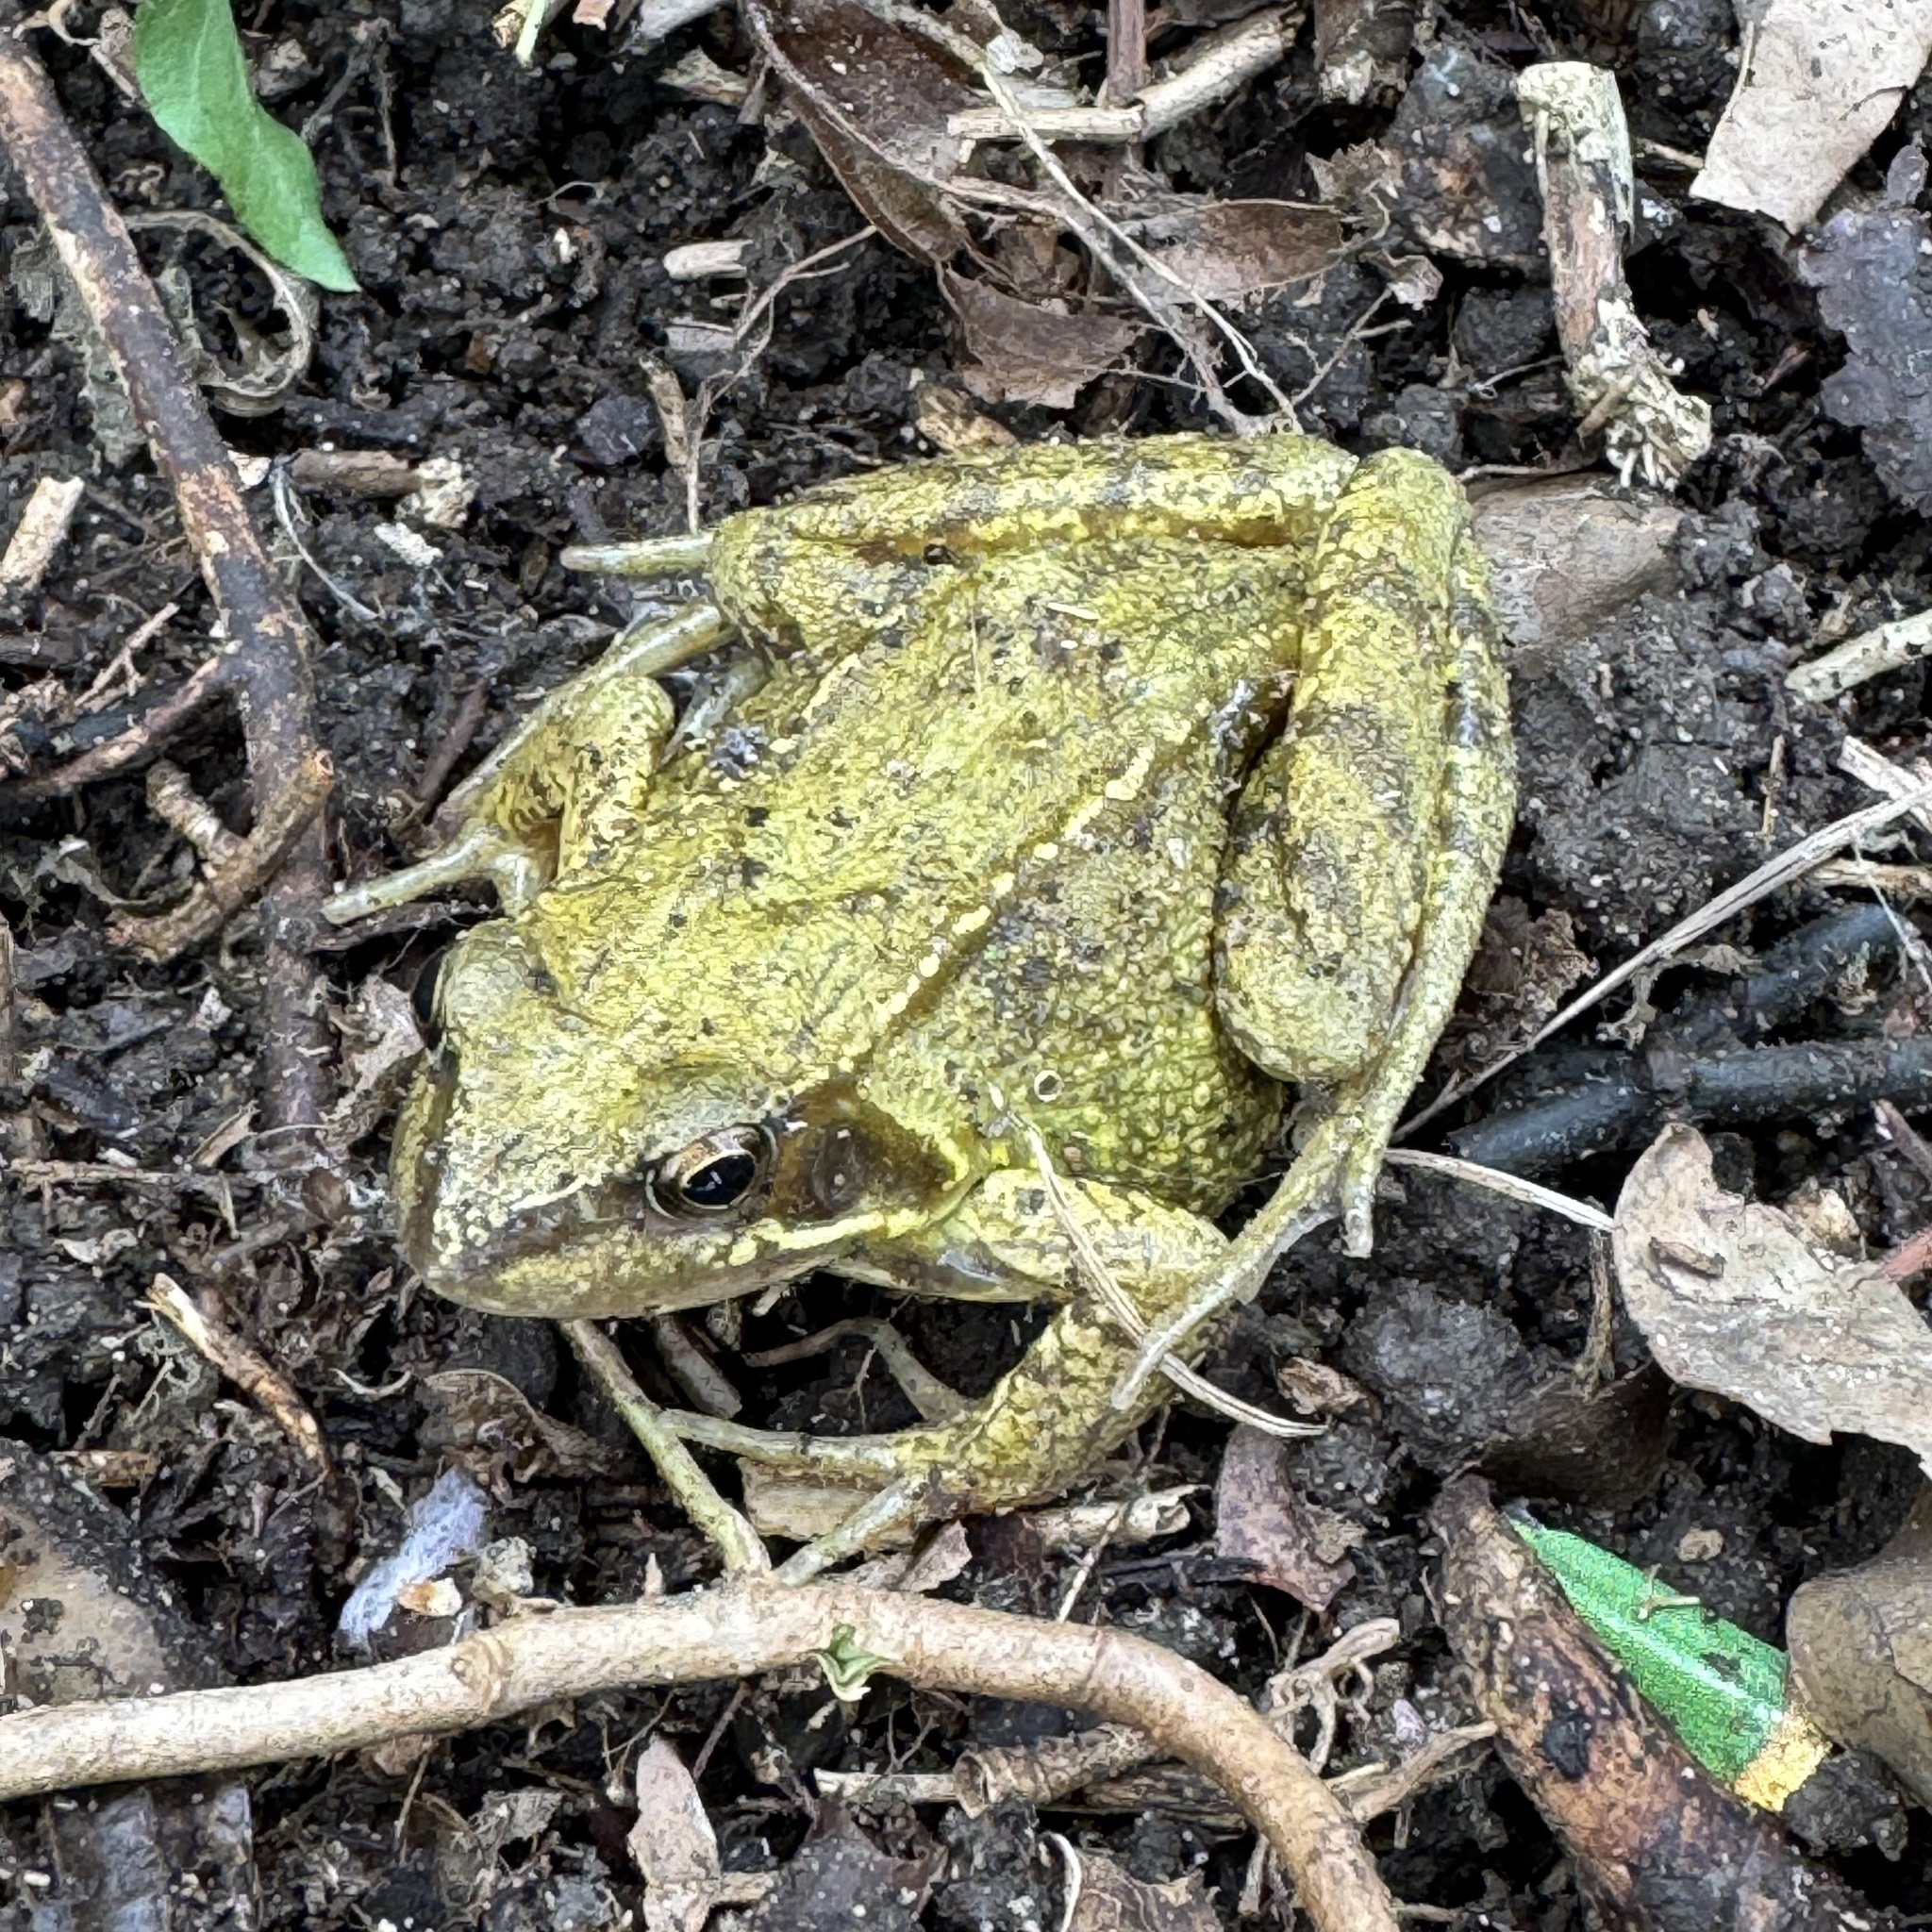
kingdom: Animalia
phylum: Chordata
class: Amphibia
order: Anura
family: Ranidae
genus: Rana
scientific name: Rana temporaria
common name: Common frog
